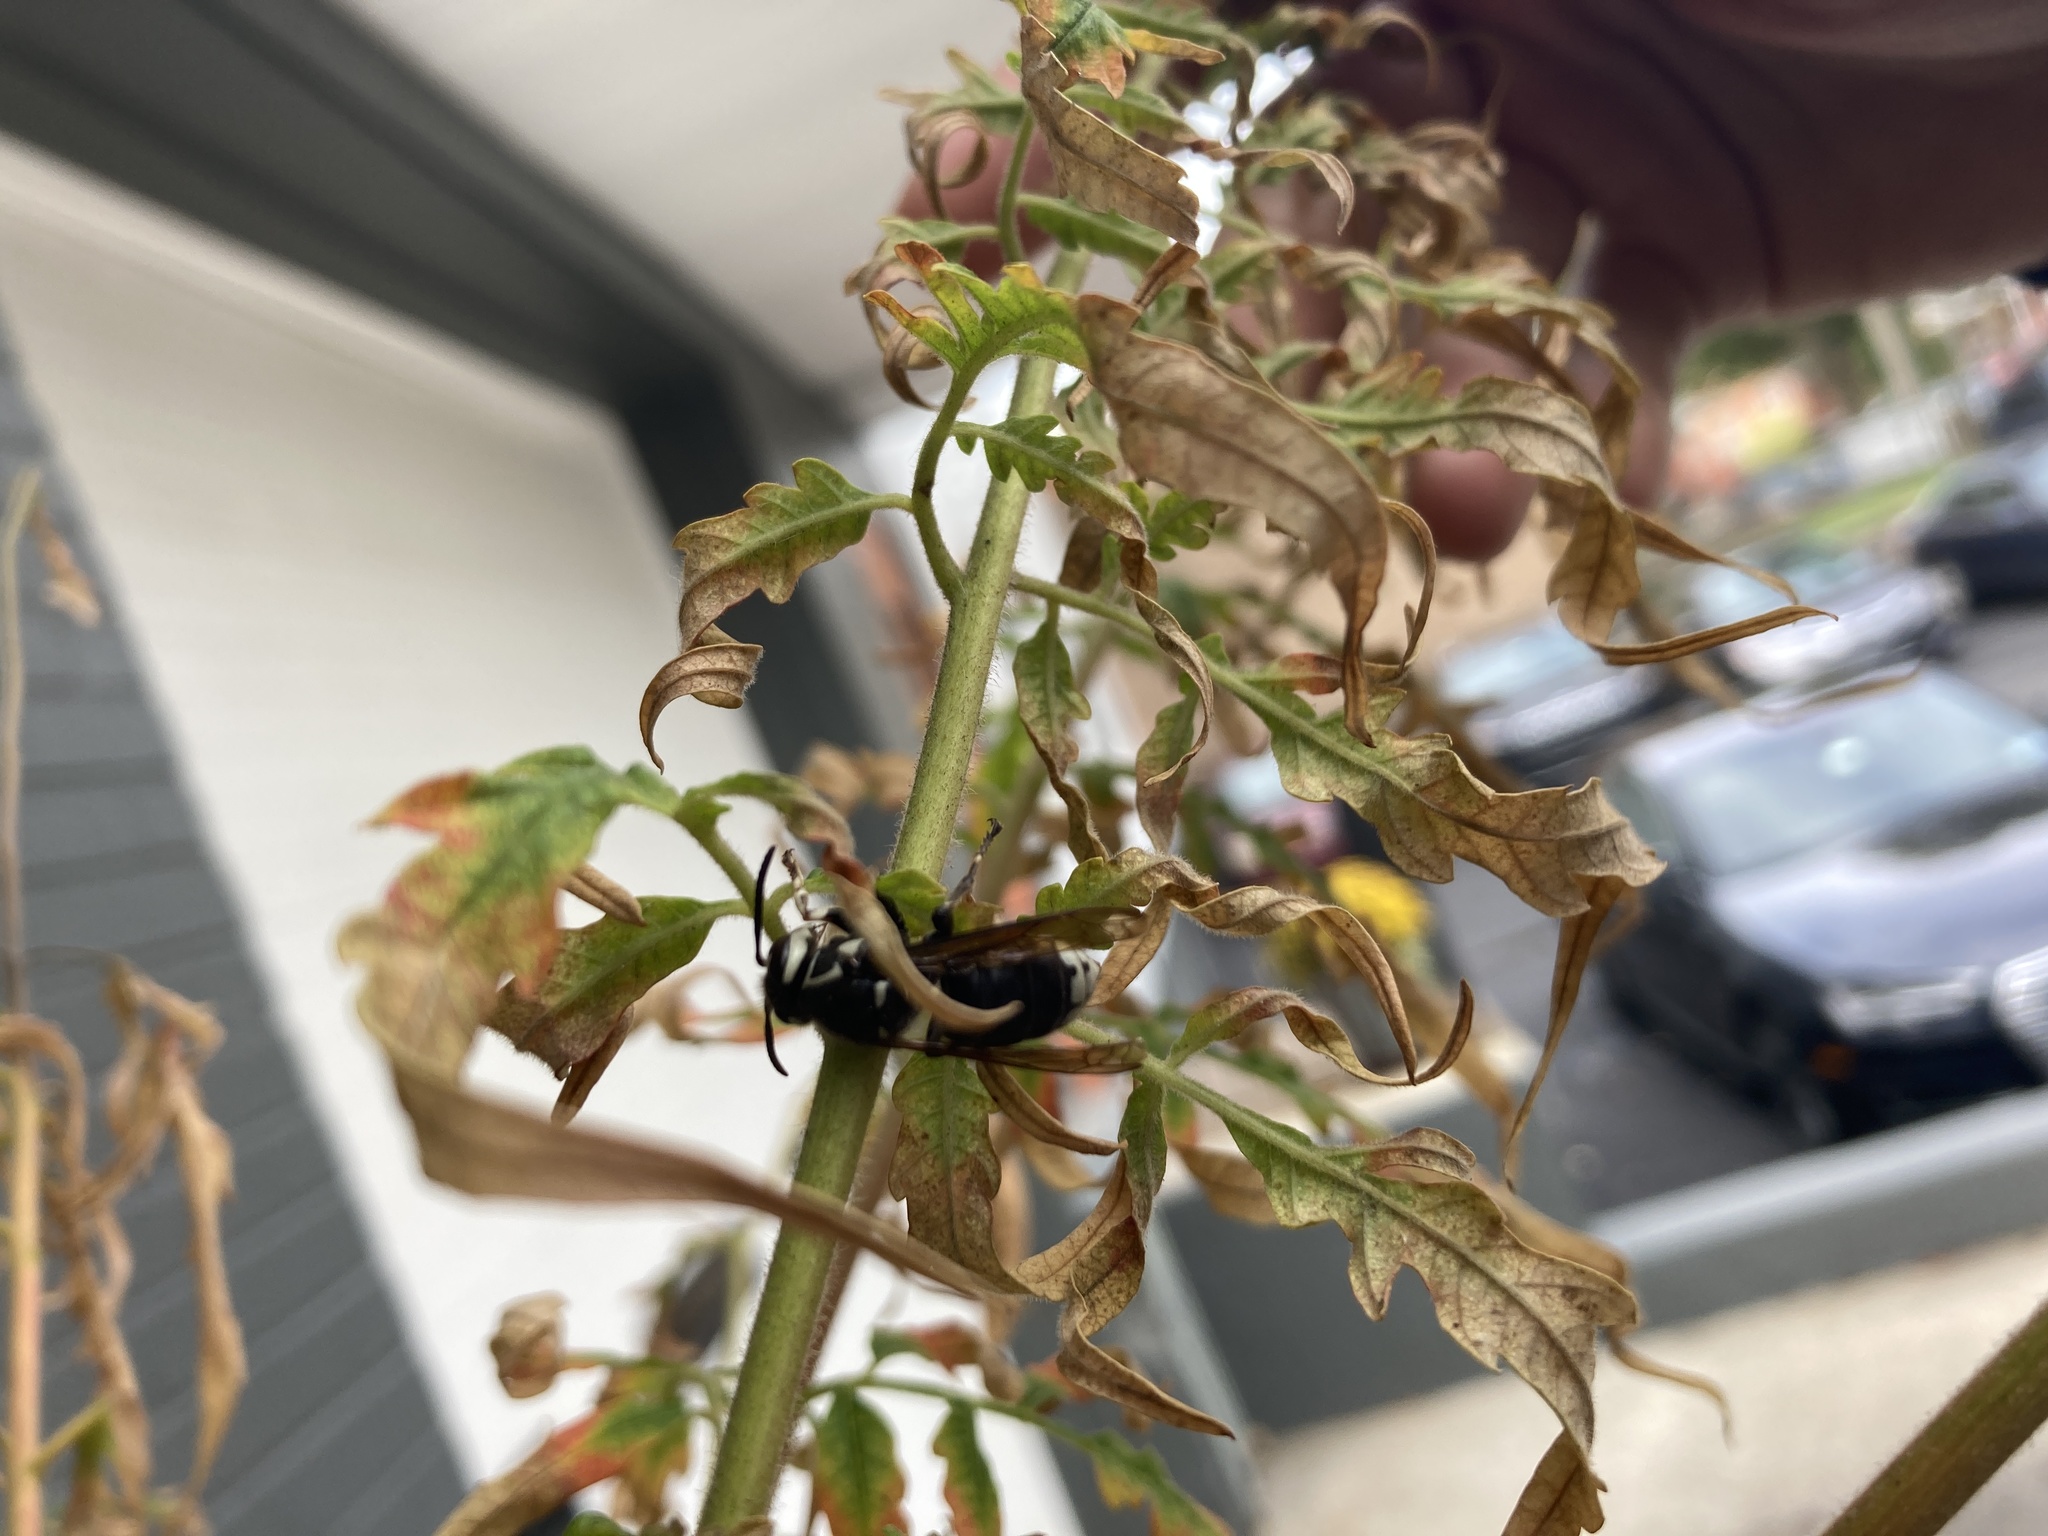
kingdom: Animalia
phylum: Arthropoda
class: Insecta
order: Hymenoptera
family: Vespidae
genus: Dolichovespula
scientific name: Dolichovespula maculata
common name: Bald-faced hornet
